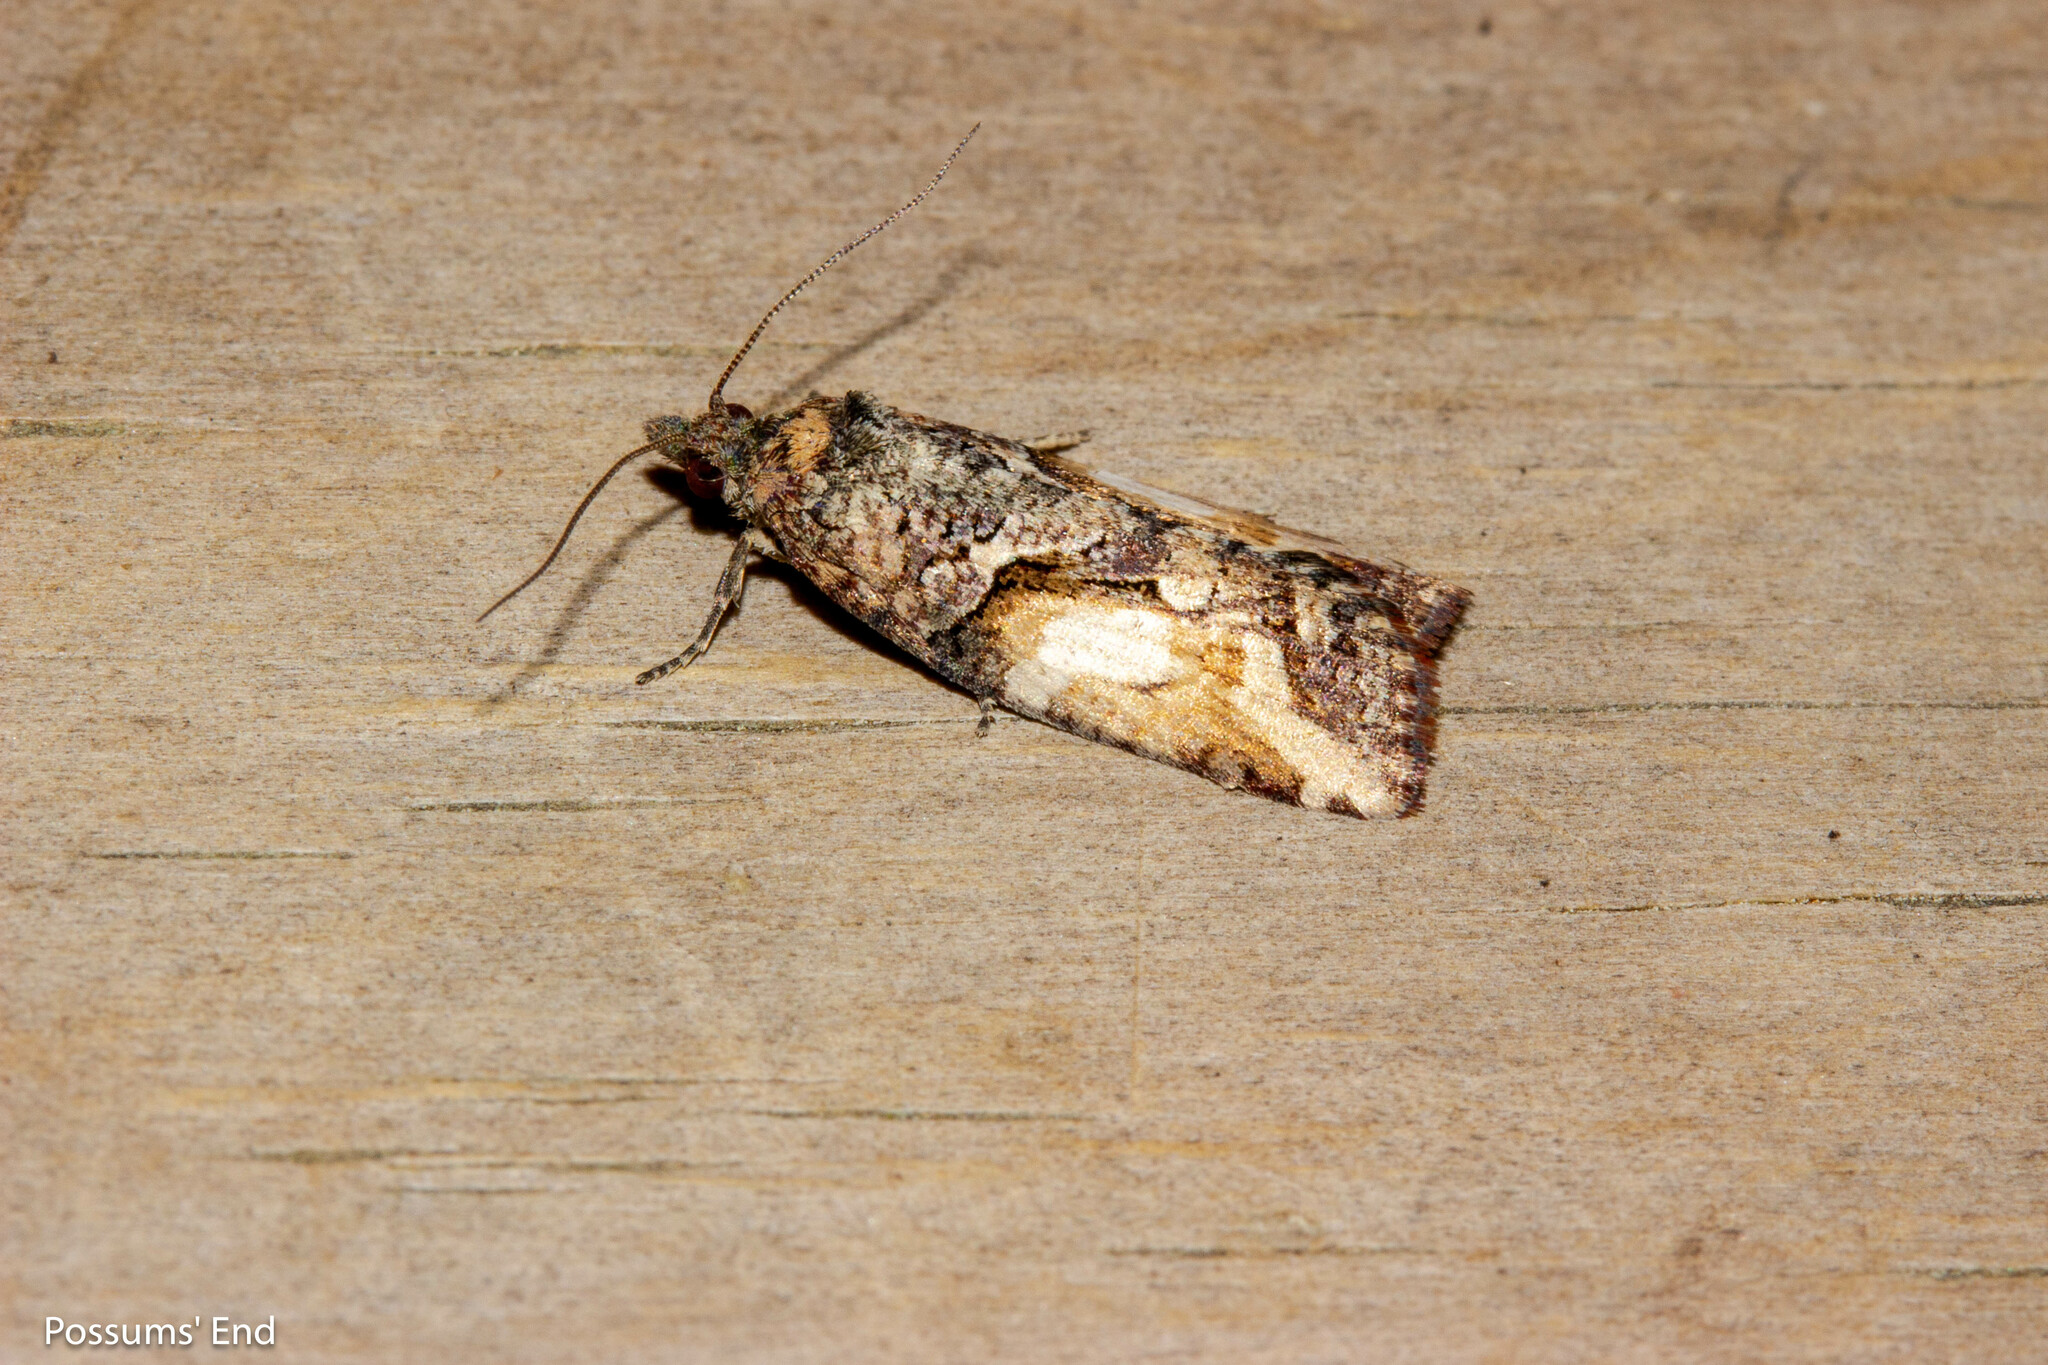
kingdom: Animalia
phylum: Arthropoda
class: Insecta
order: Lepidoptera
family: Tortricidae
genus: Harmologa
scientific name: Harmologa scoliastis
